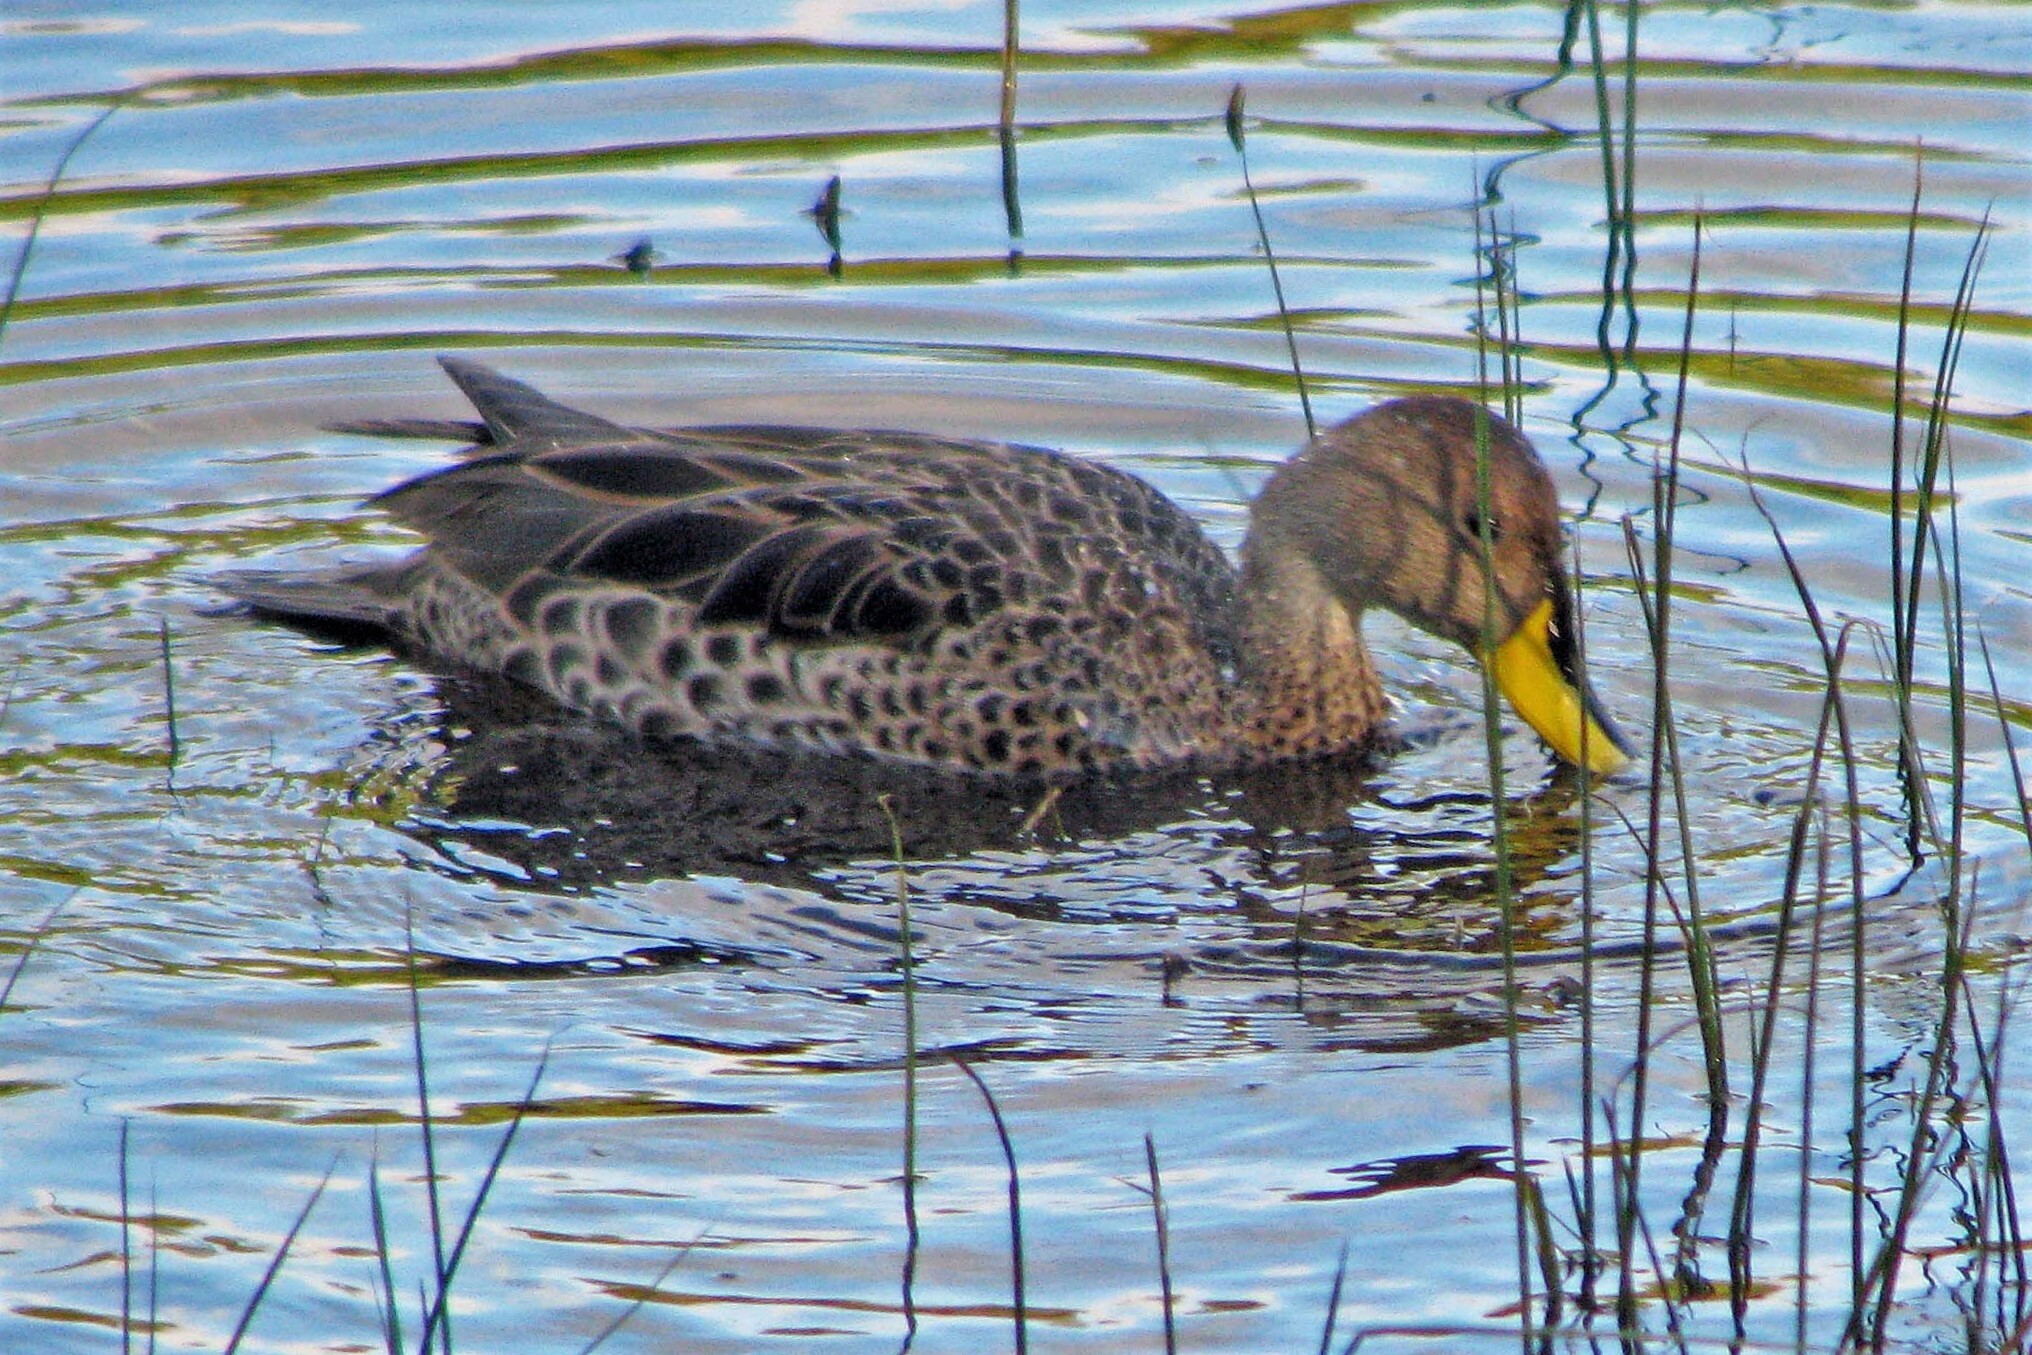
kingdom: Animalia
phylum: Chordata
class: Aves
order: Anseriformes
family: Anatidae
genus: Anas
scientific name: Anas georgica
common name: Yellow-billed pintail
